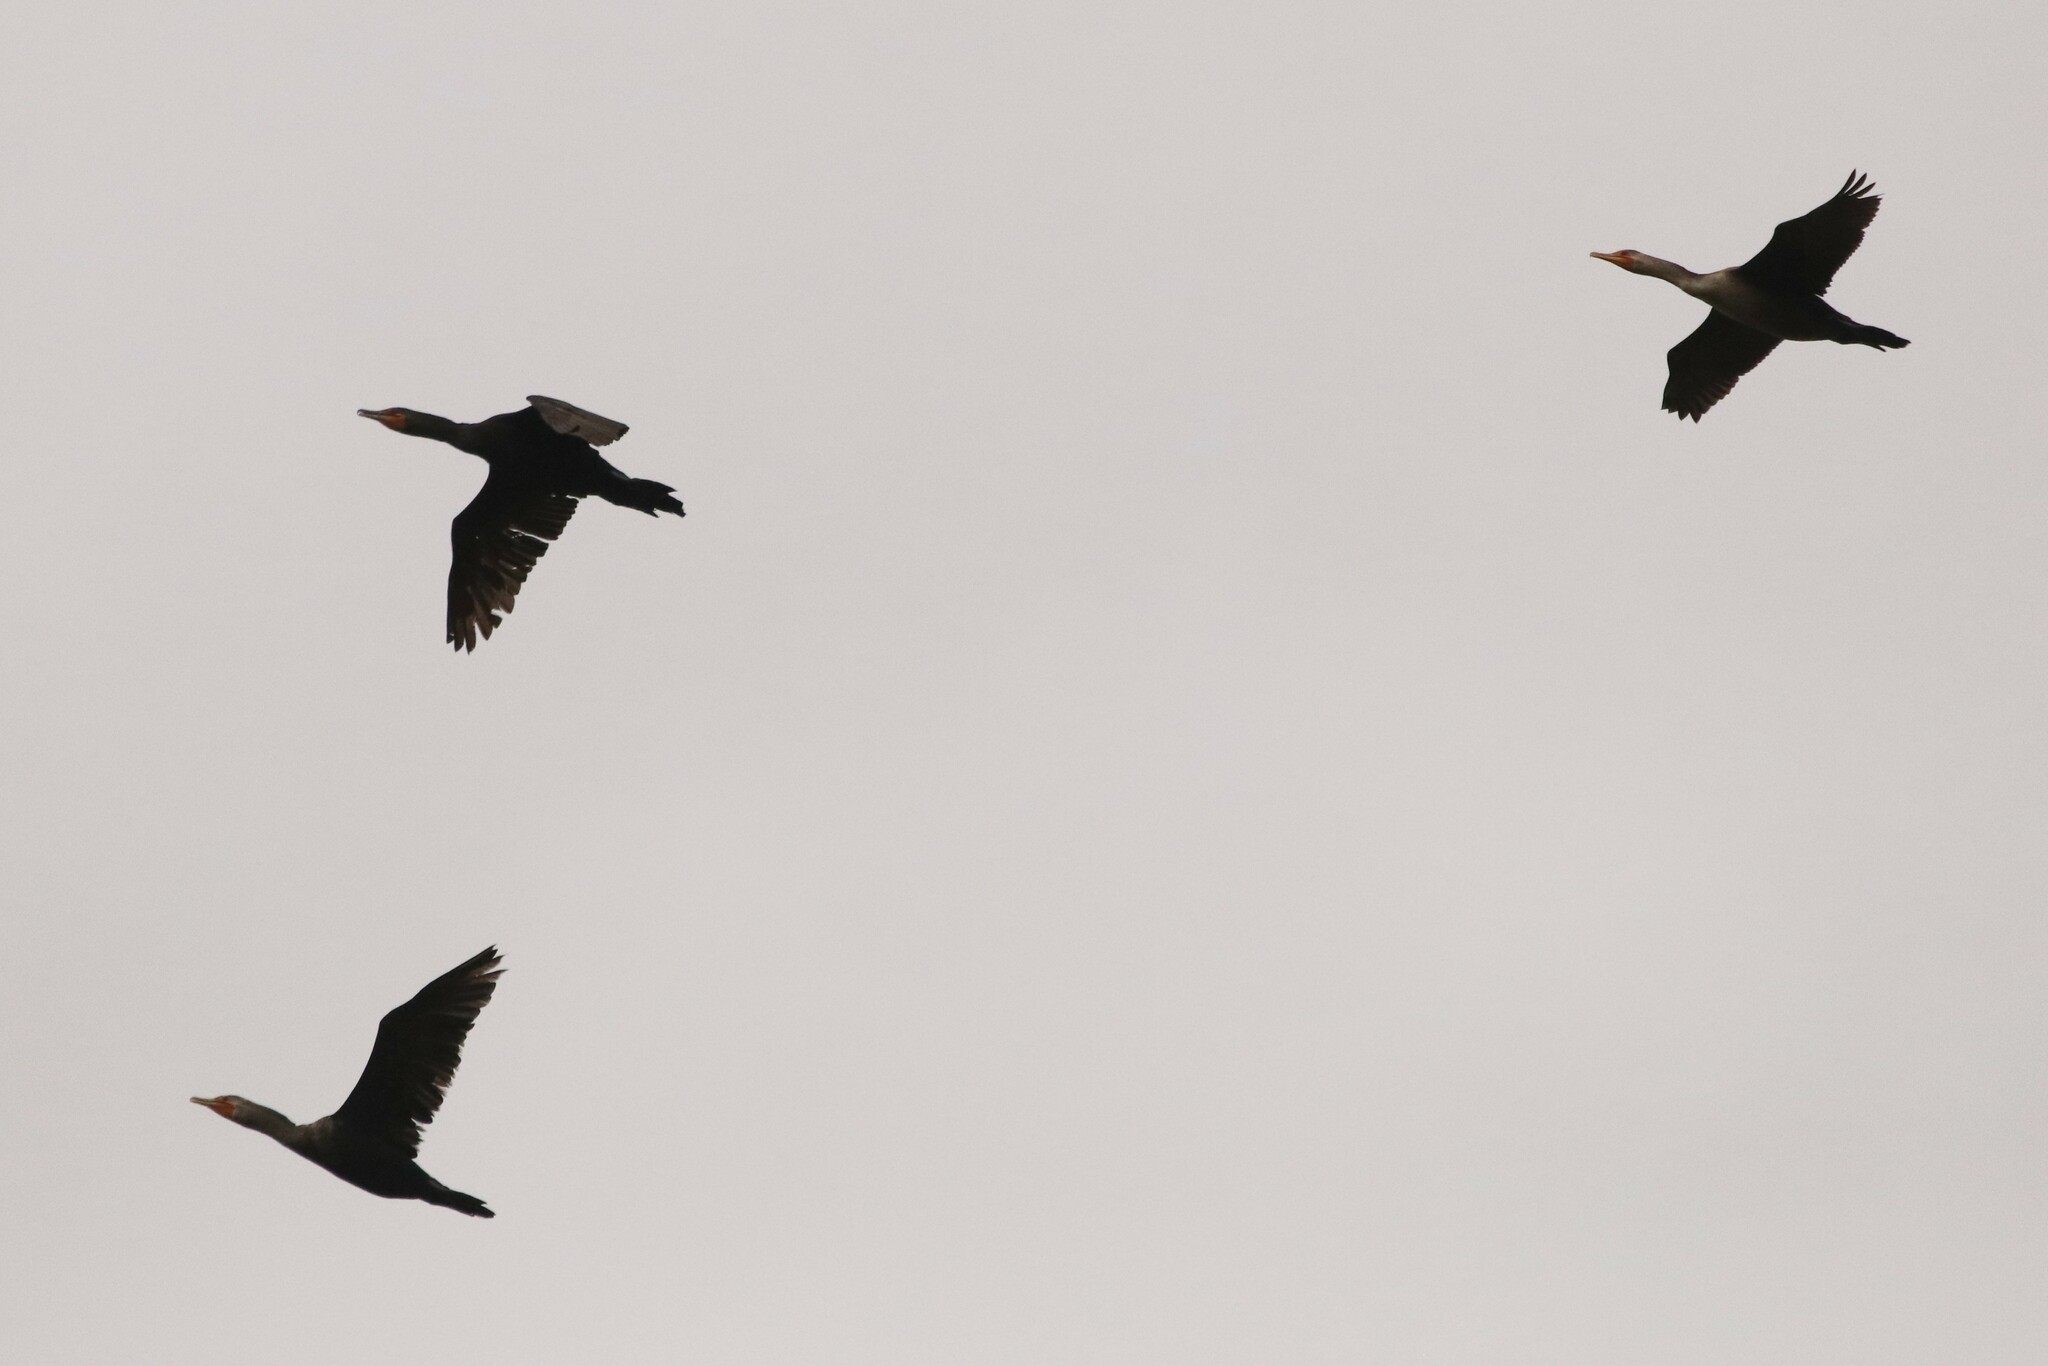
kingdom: Animalia
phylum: Chordata
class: Aves
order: Suliformes
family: Phalacrocoracidae
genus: Phalacrocorax
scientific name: Phalacrocorax auritus
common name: Double-crested cormorant
